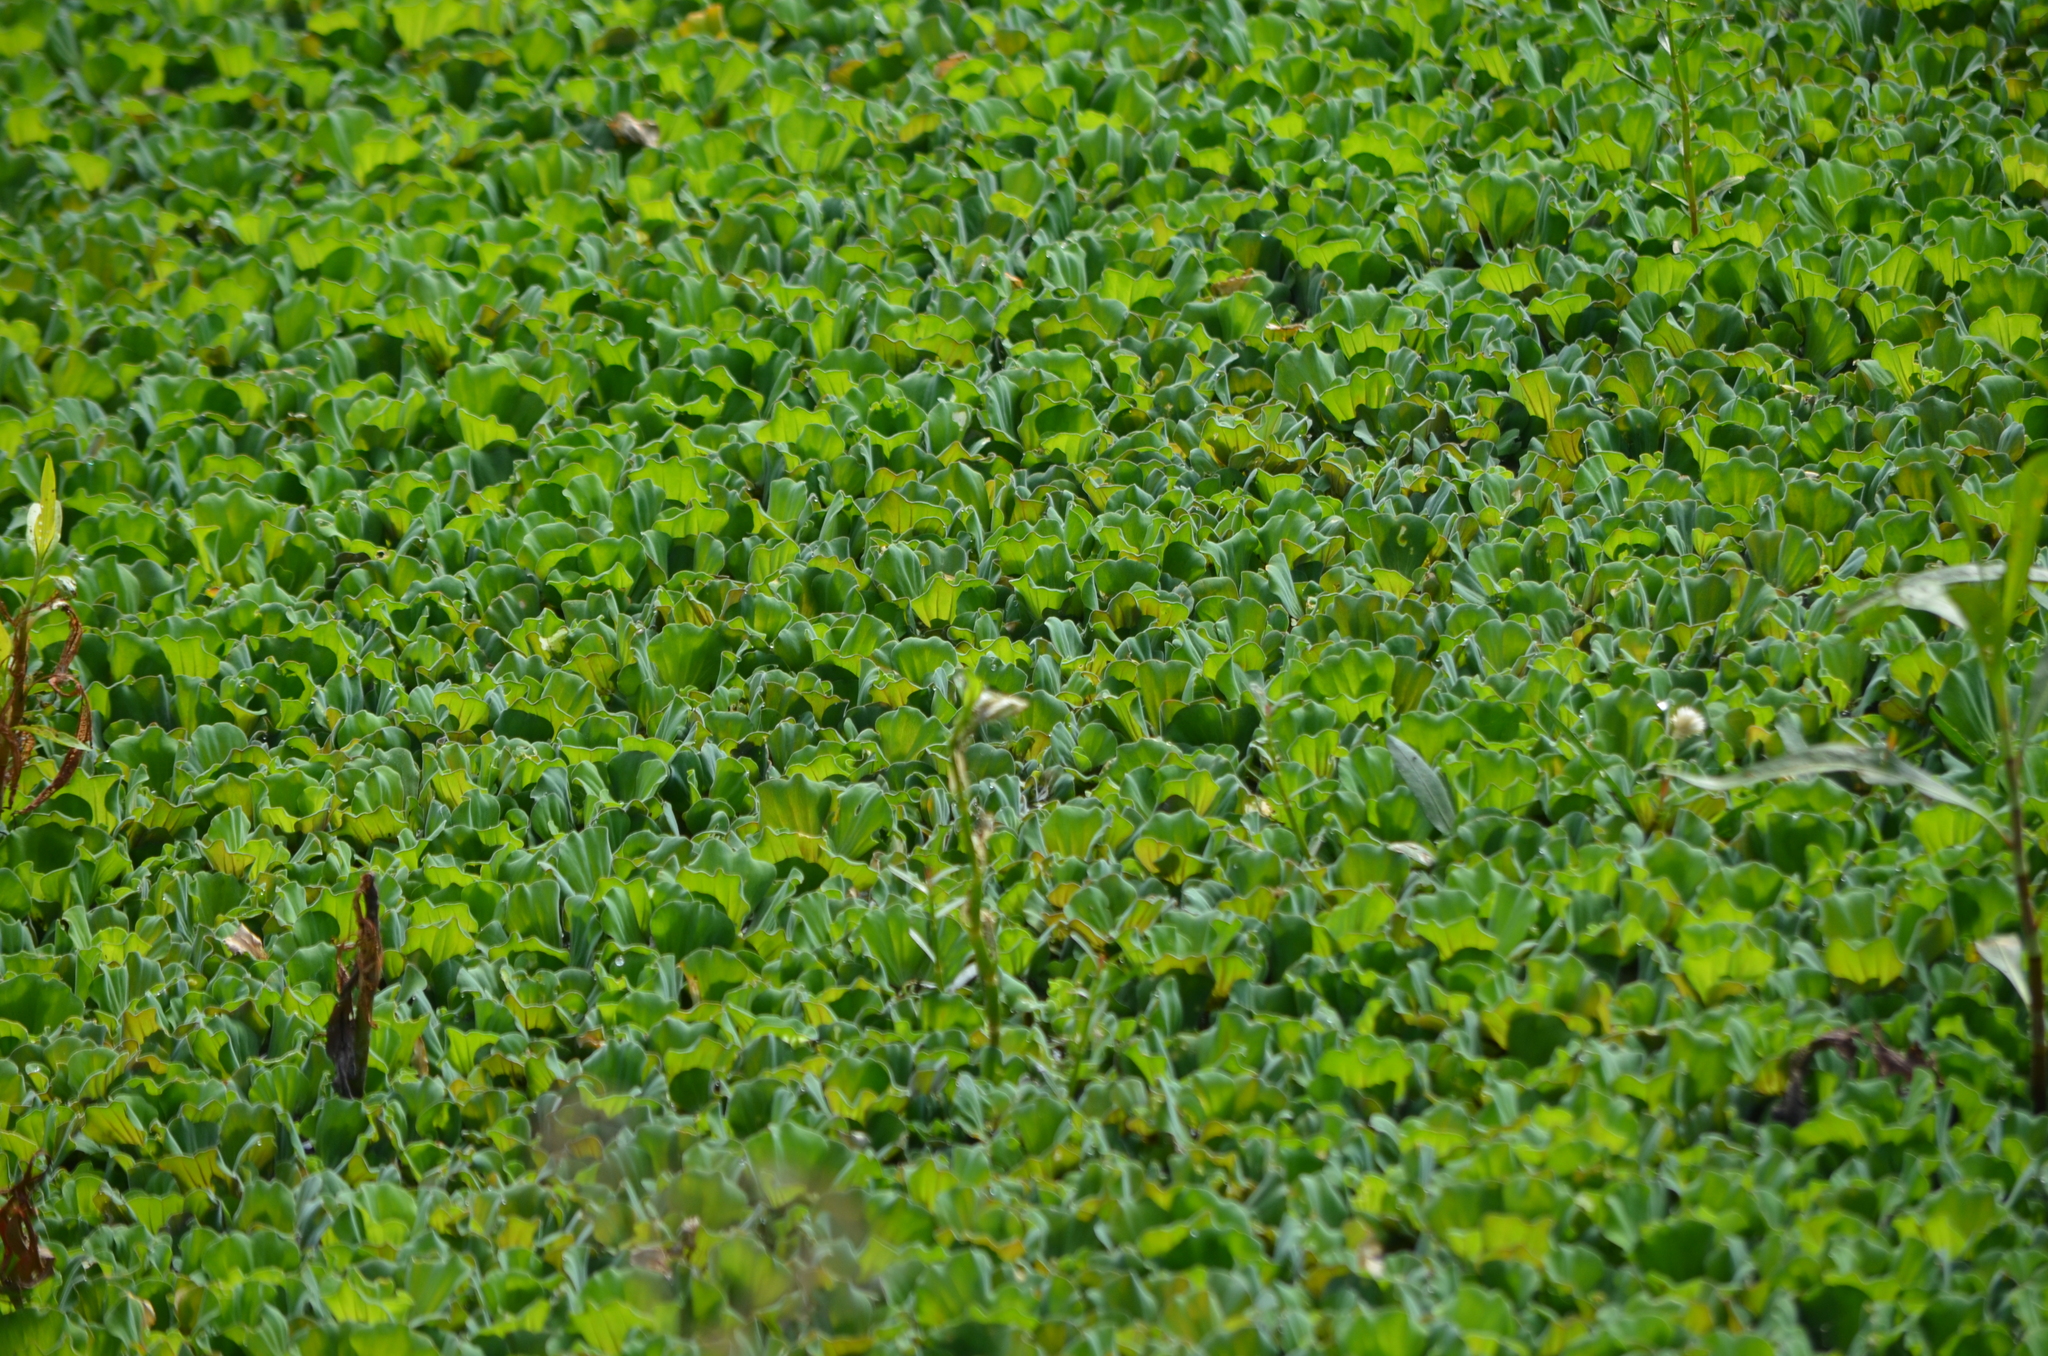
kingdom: Plantae
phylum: Tracheophyta
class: Liliopsida
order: Alismatales
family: Araceae
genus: Pistia
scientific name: Pistia stratiotes
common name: Water lettuce
